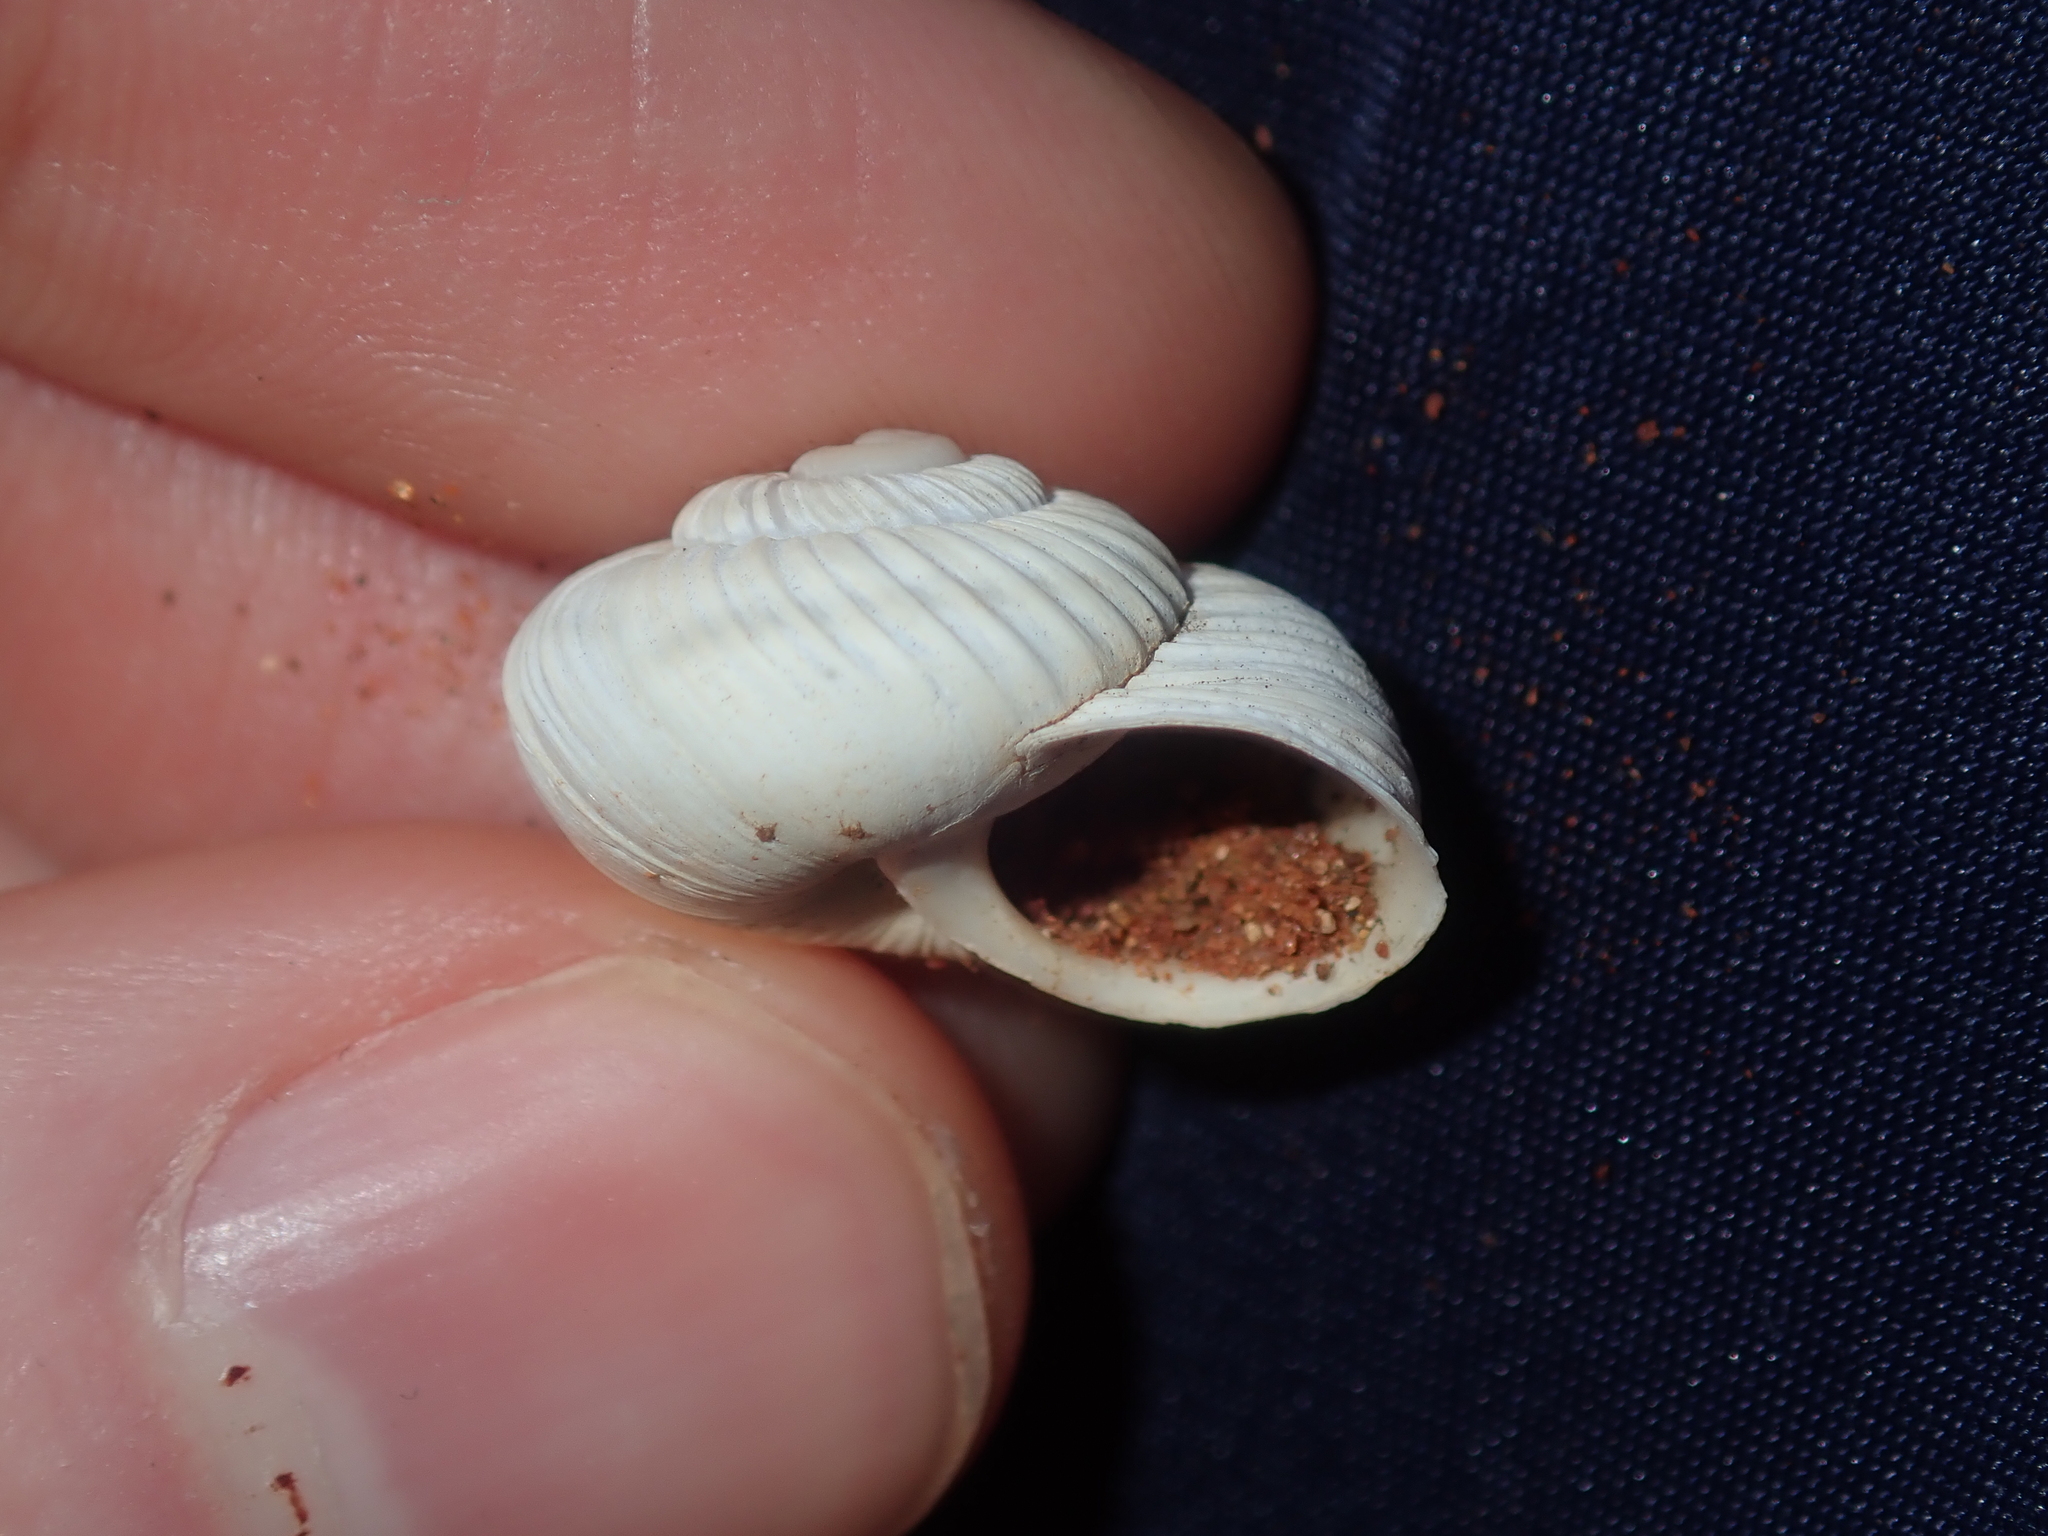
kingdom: Animalia
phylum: Mollusca
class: Gastropoda
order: Stylommatophora
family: Camaenidae
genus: Falspleuroxia
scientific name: Falspleuroxia overlanderensis
